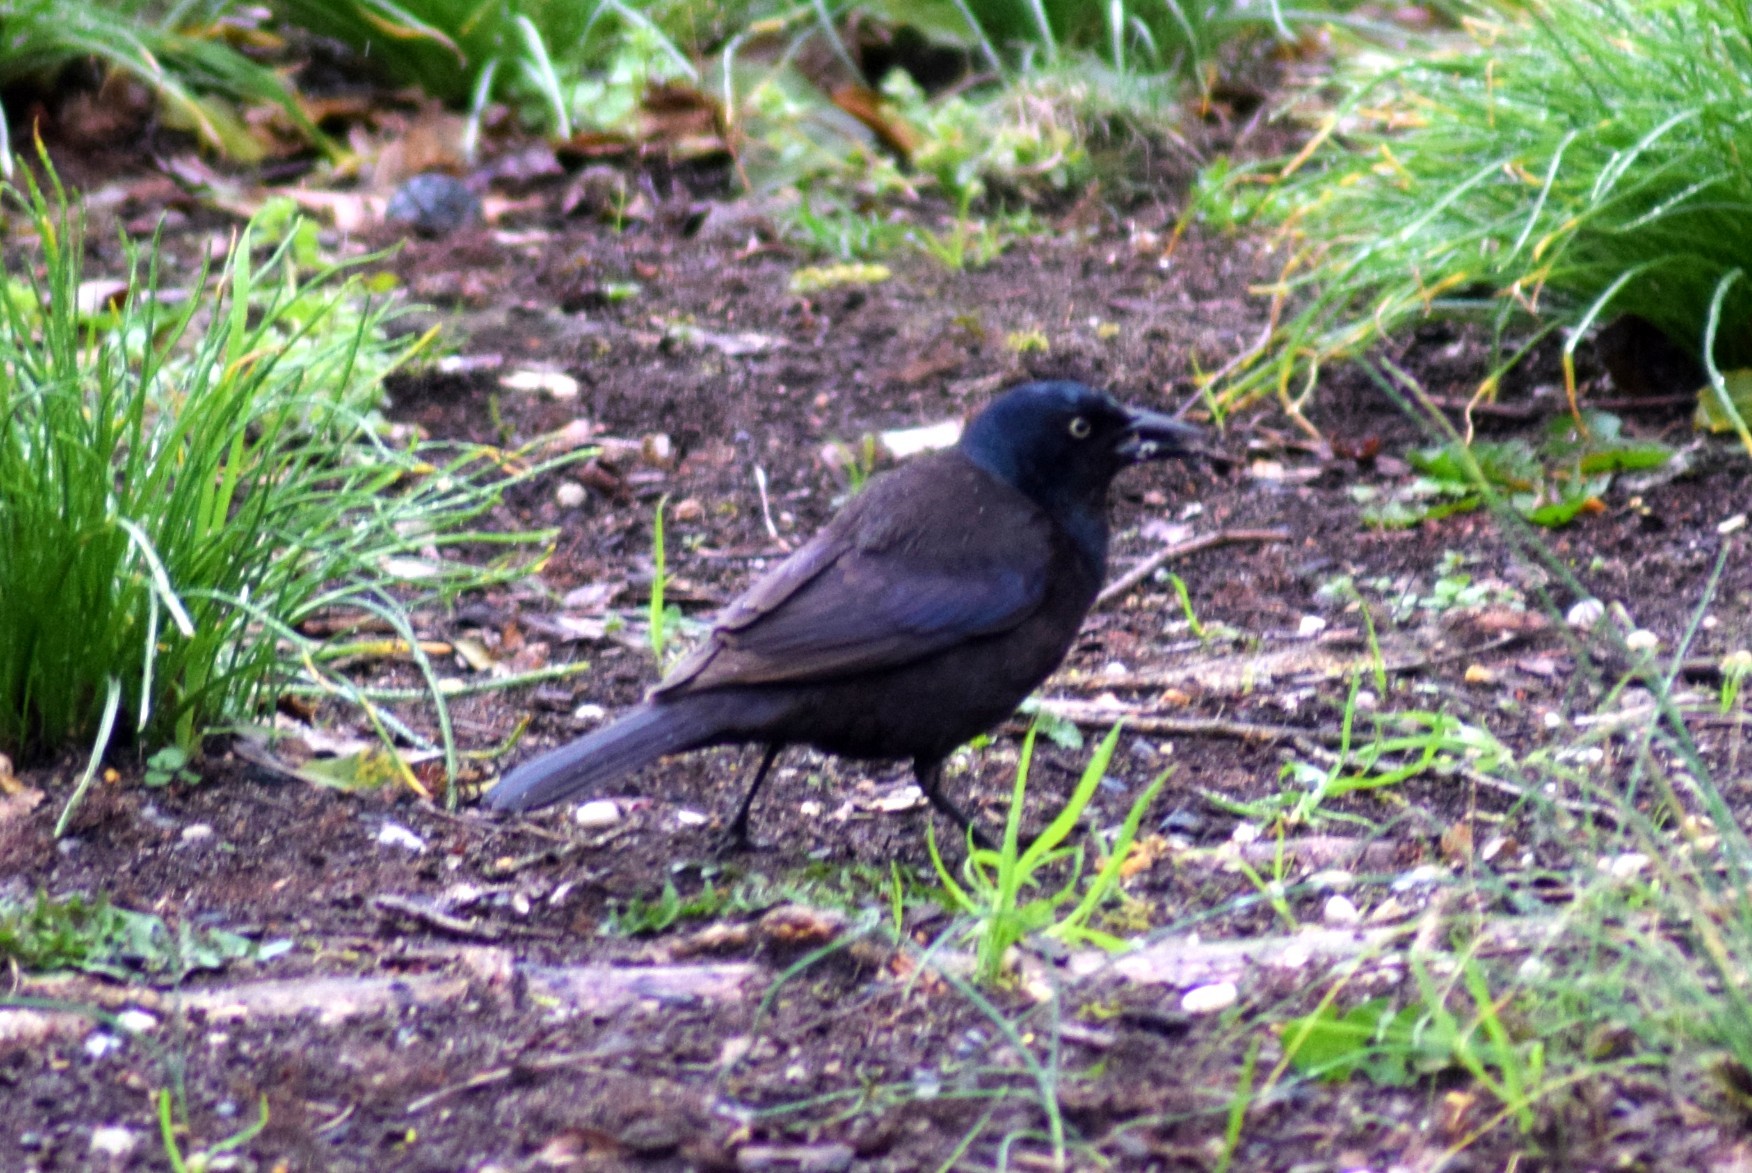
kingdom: Animalia
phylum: Chordata
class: Aves
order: Passeriformes
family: Icteridae
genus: Quiscalus
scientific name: Quiscalus quiscula
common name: Common grackle
